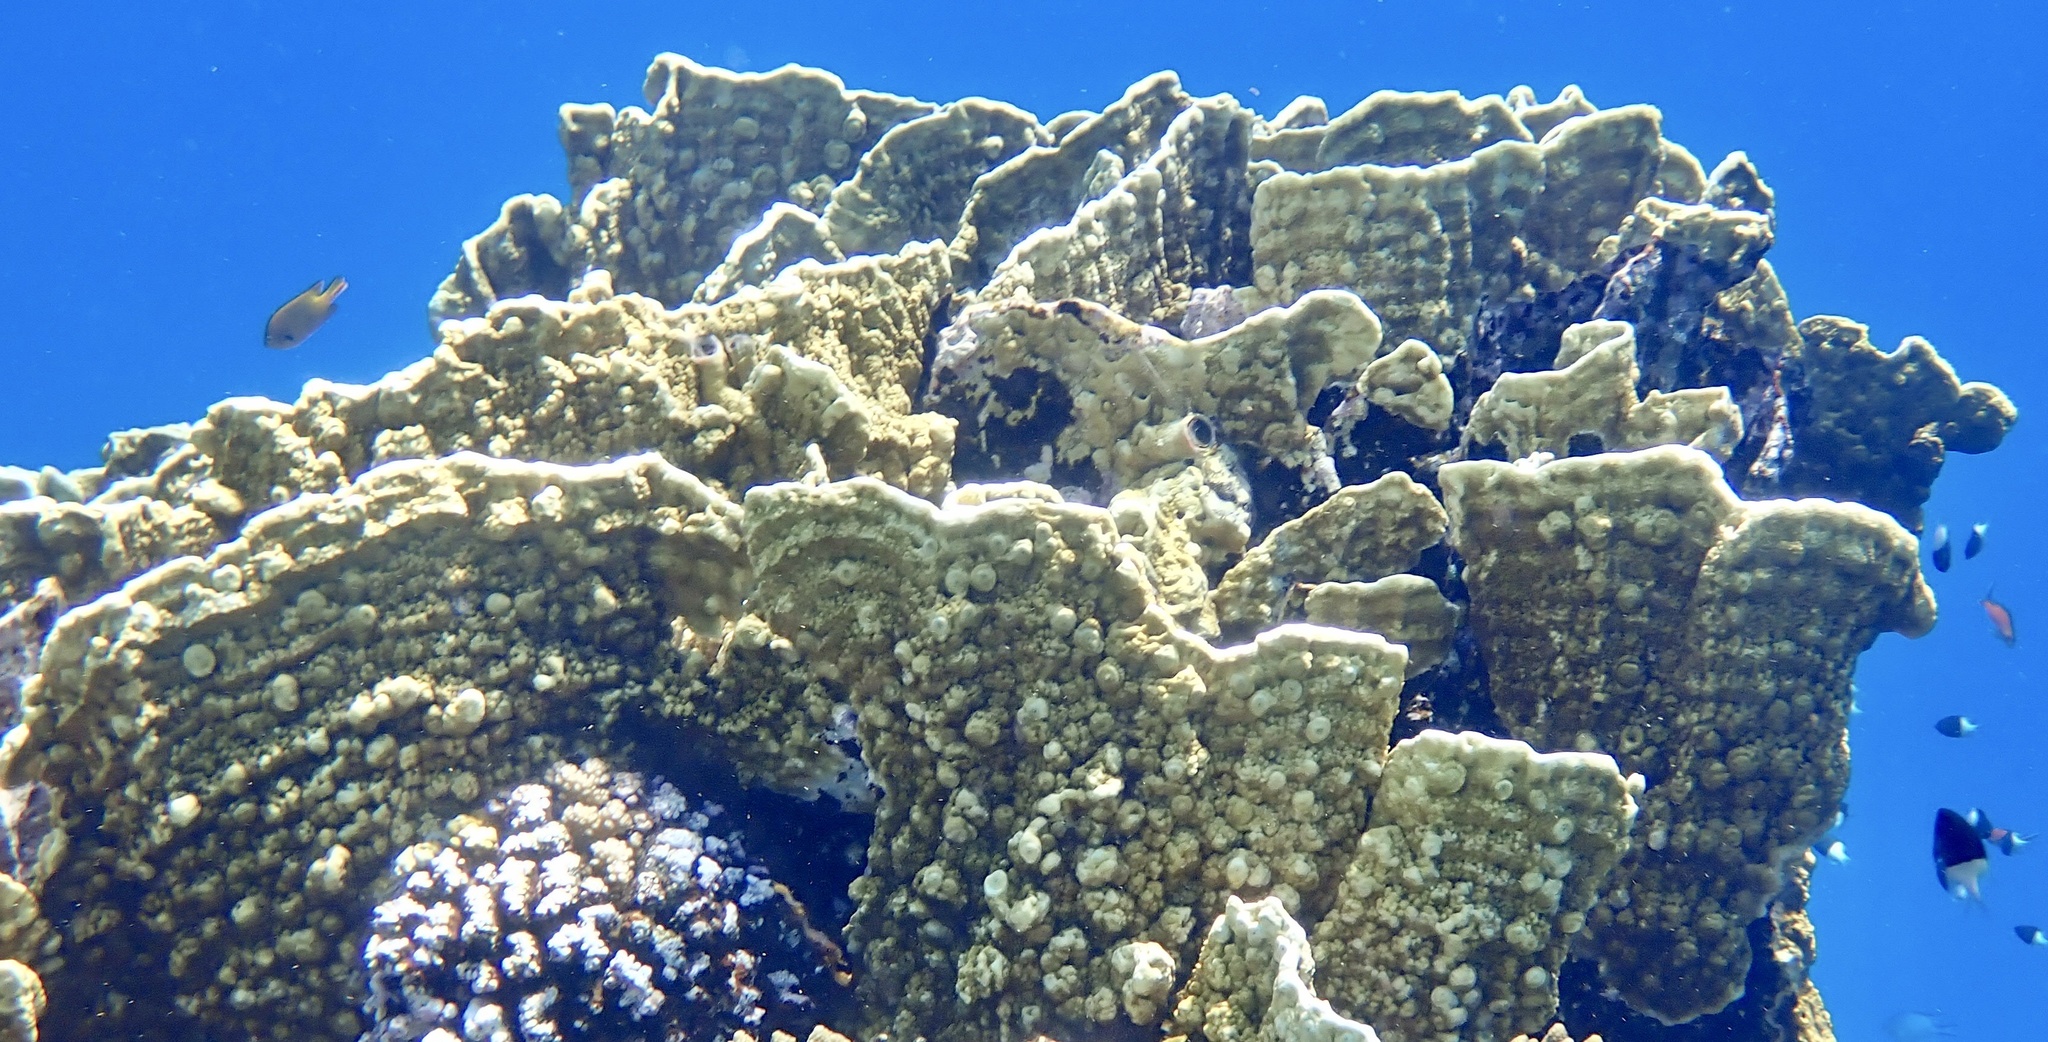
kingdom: Animalia
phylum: Cnidaria
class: Hydrozoa
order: Anthoathecata
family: Milleporidae
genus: Millepora
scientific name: Millepora platyphylla
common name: Sheet fire coral
